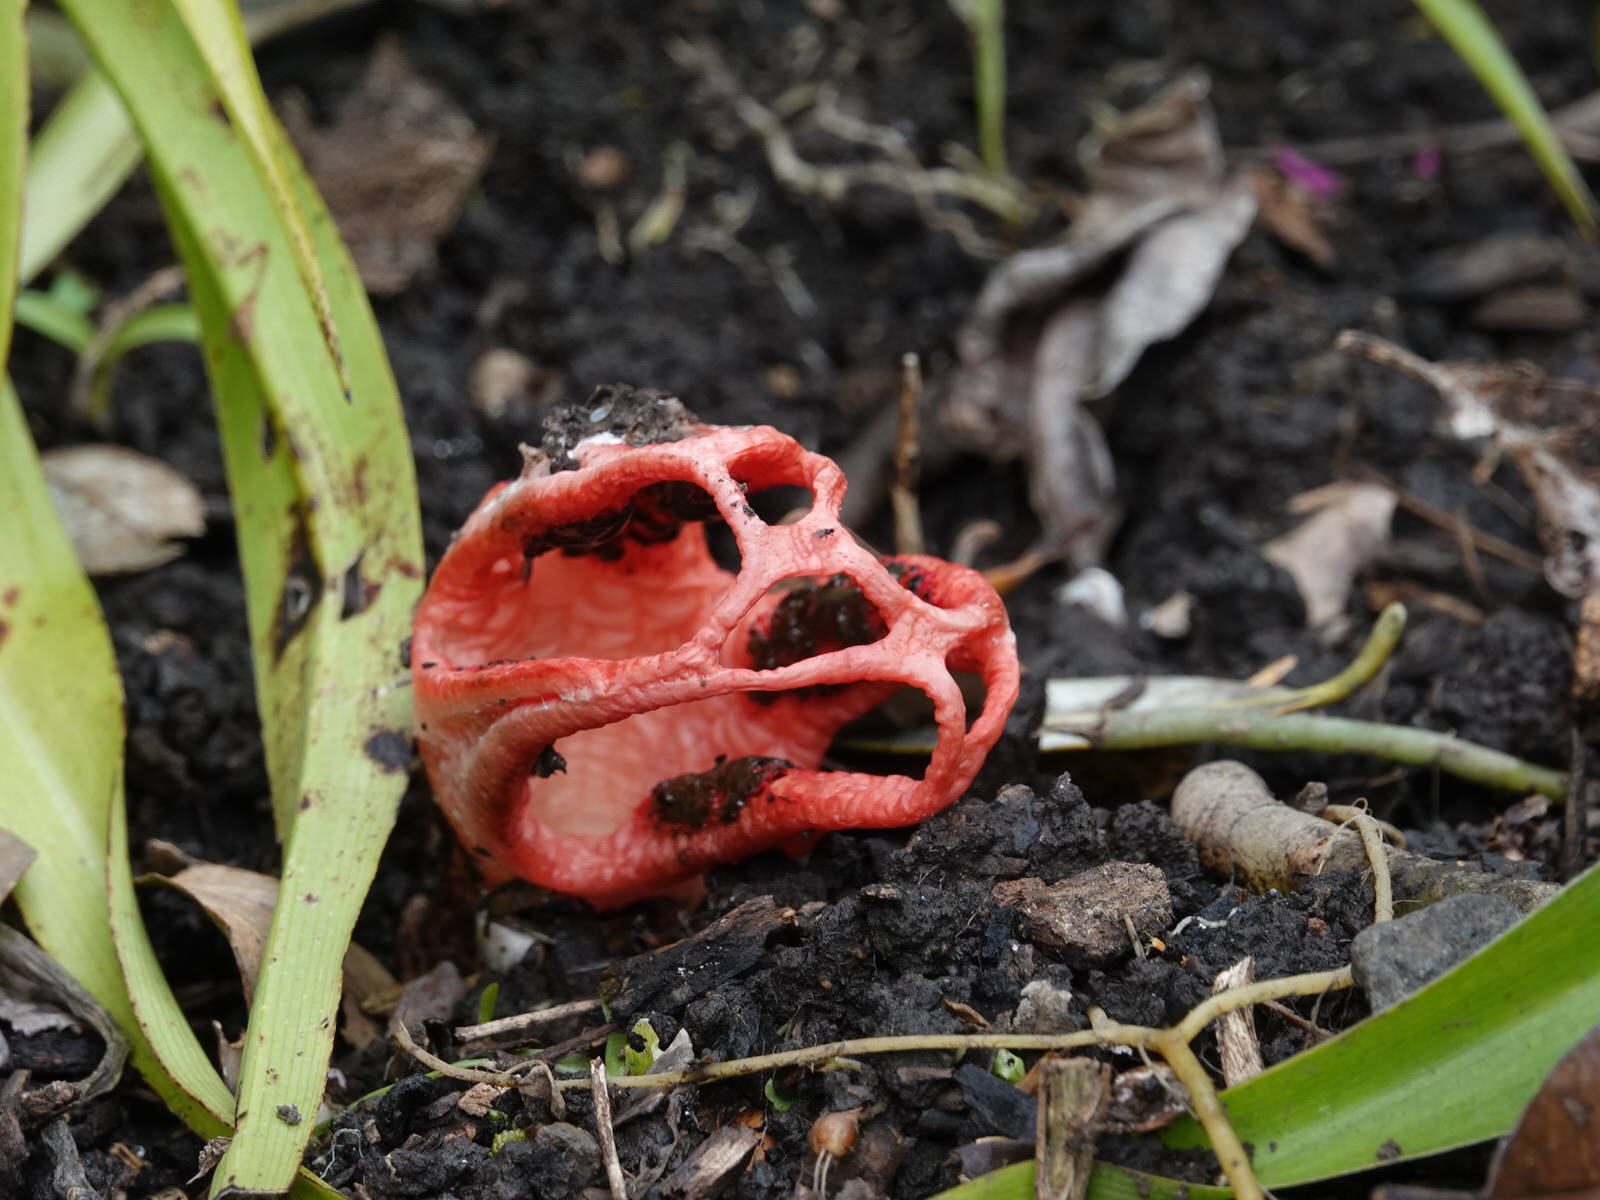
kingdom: Fungi
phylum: Basidiomycota
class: Agaricomycetes
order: Phallales
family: Phallaceae
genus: Clathrus
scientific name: Clathrus archeri
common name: Devil's fingers
